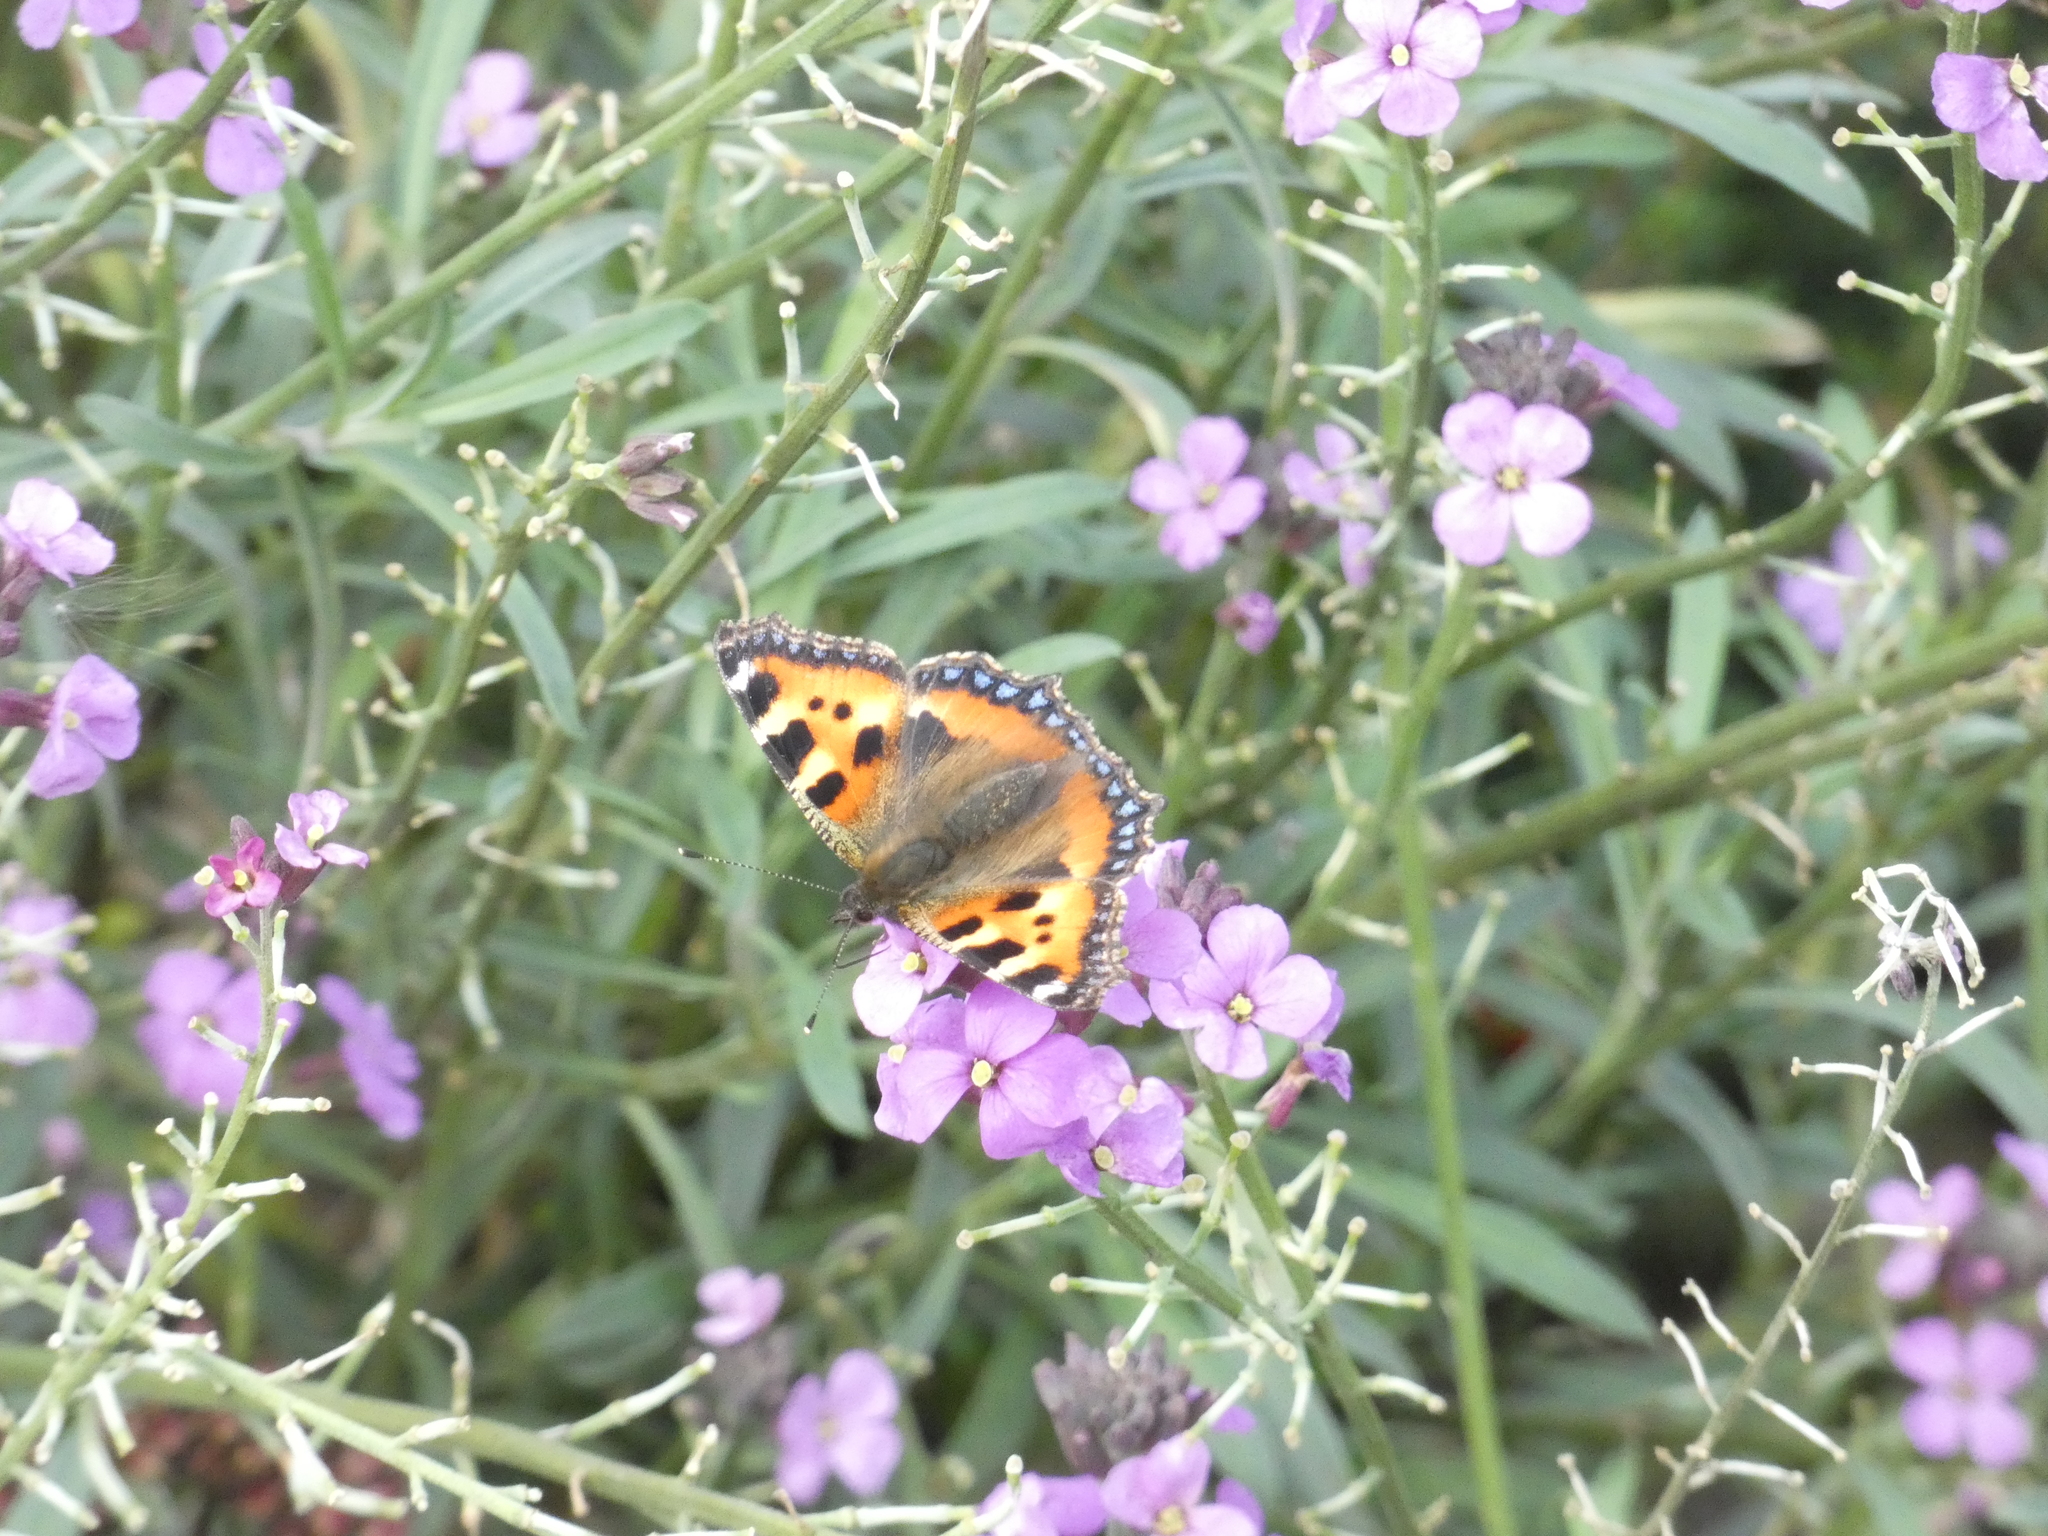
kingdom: Animalia
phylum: Arthropoda
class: Insecta
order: Lepidoptera
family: Nymphalidae
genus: Aglais
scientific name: Aglais urticae
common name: Small tortoiseshell
